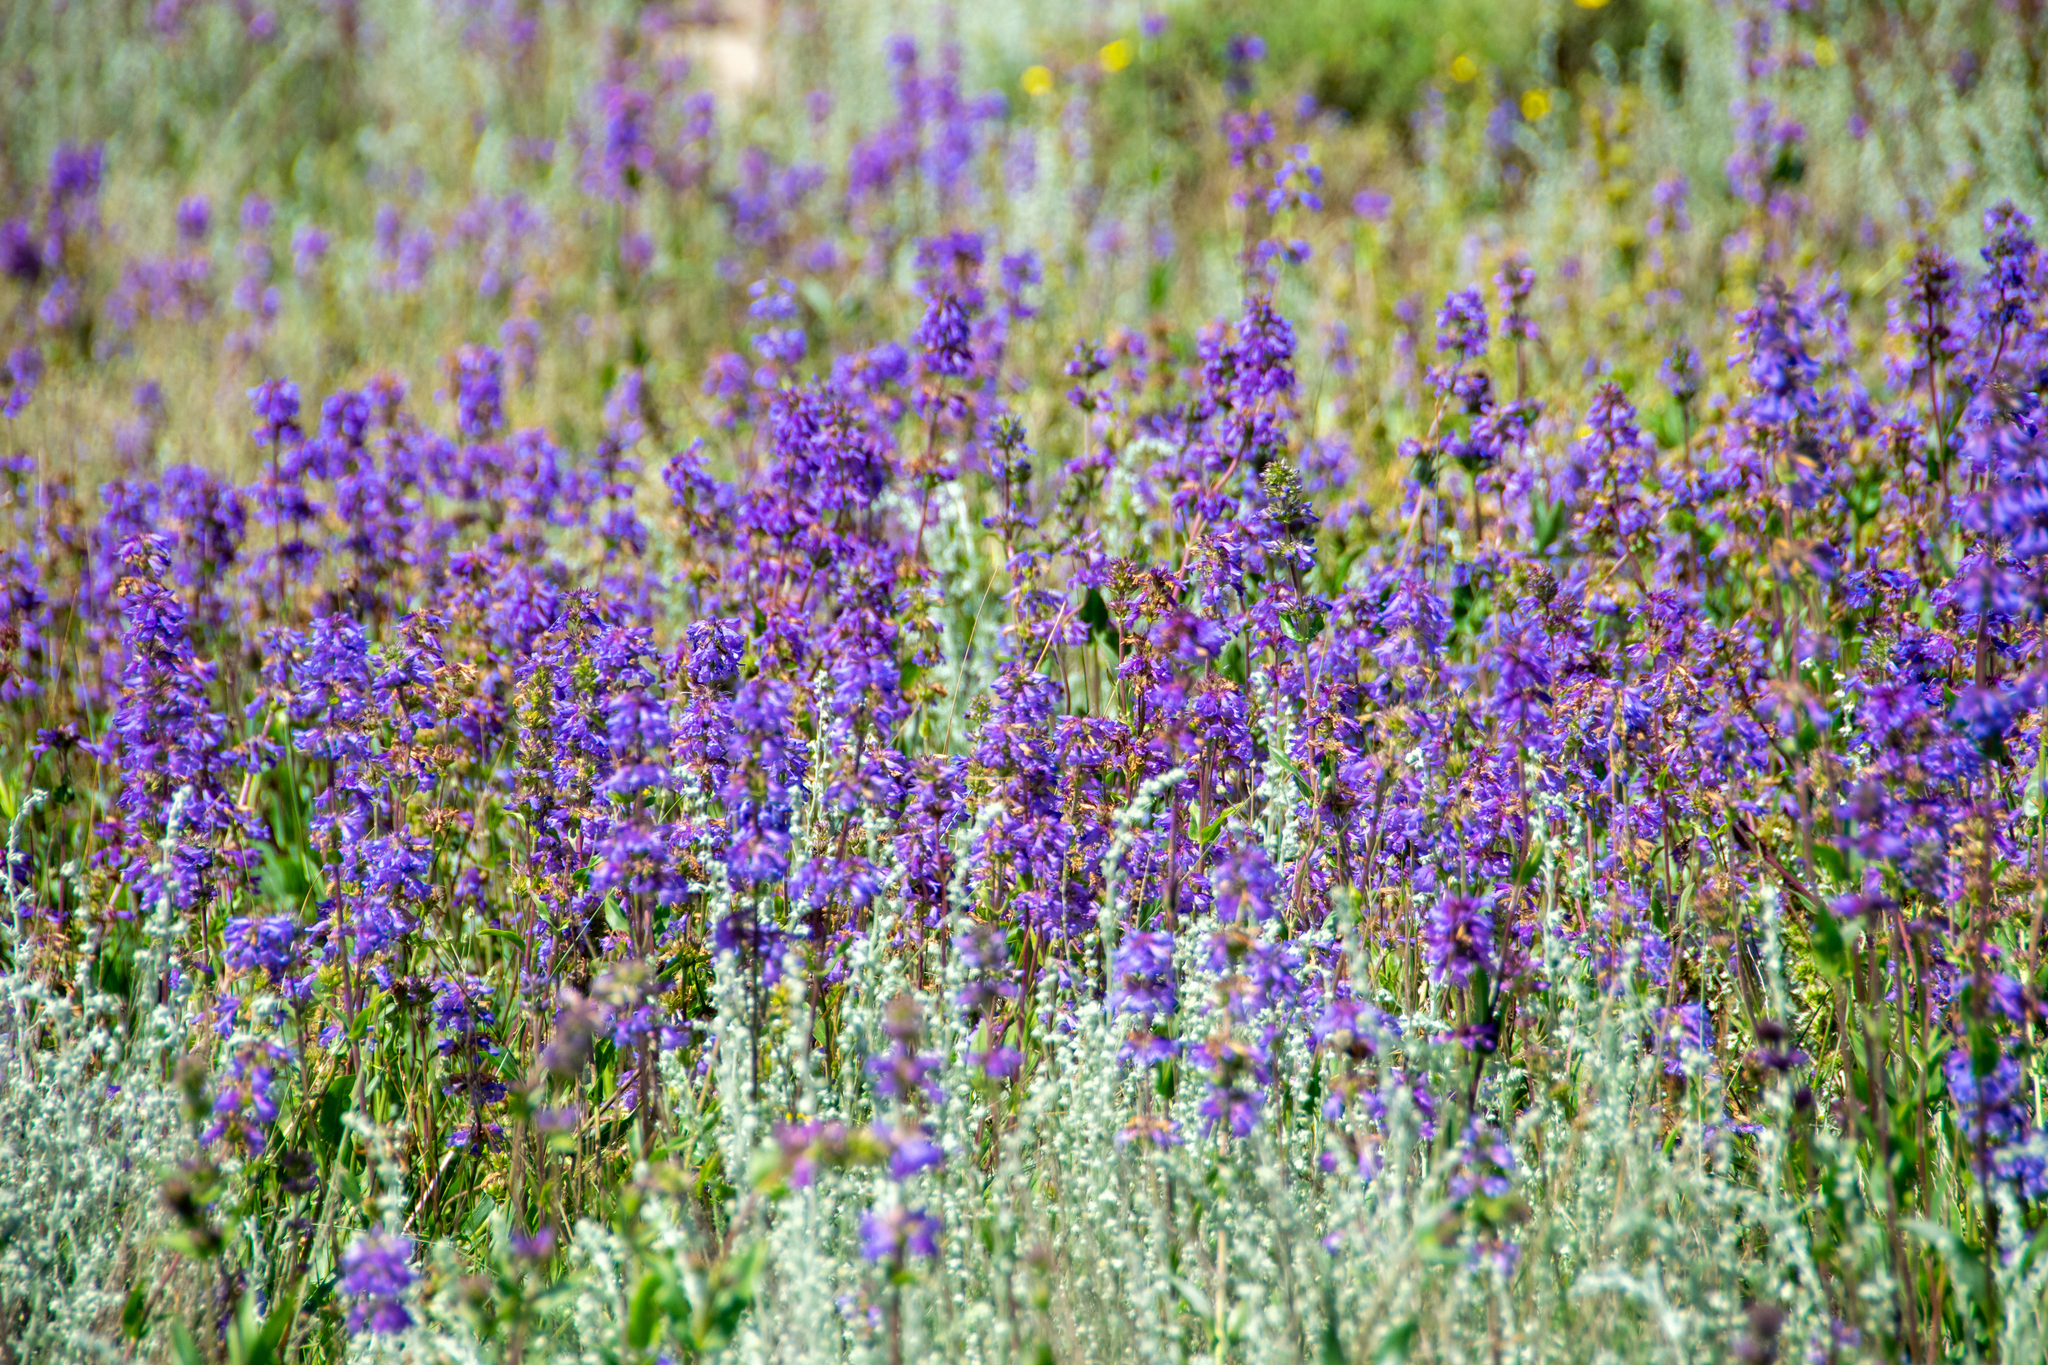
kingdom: Plantae
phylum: Tracheophyta
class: Magnoliopsida
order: Lamiales
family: Plantaginaceae
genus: Penstemon
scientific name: Penstemon rydbergii
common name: Rydberg's beardtongue
